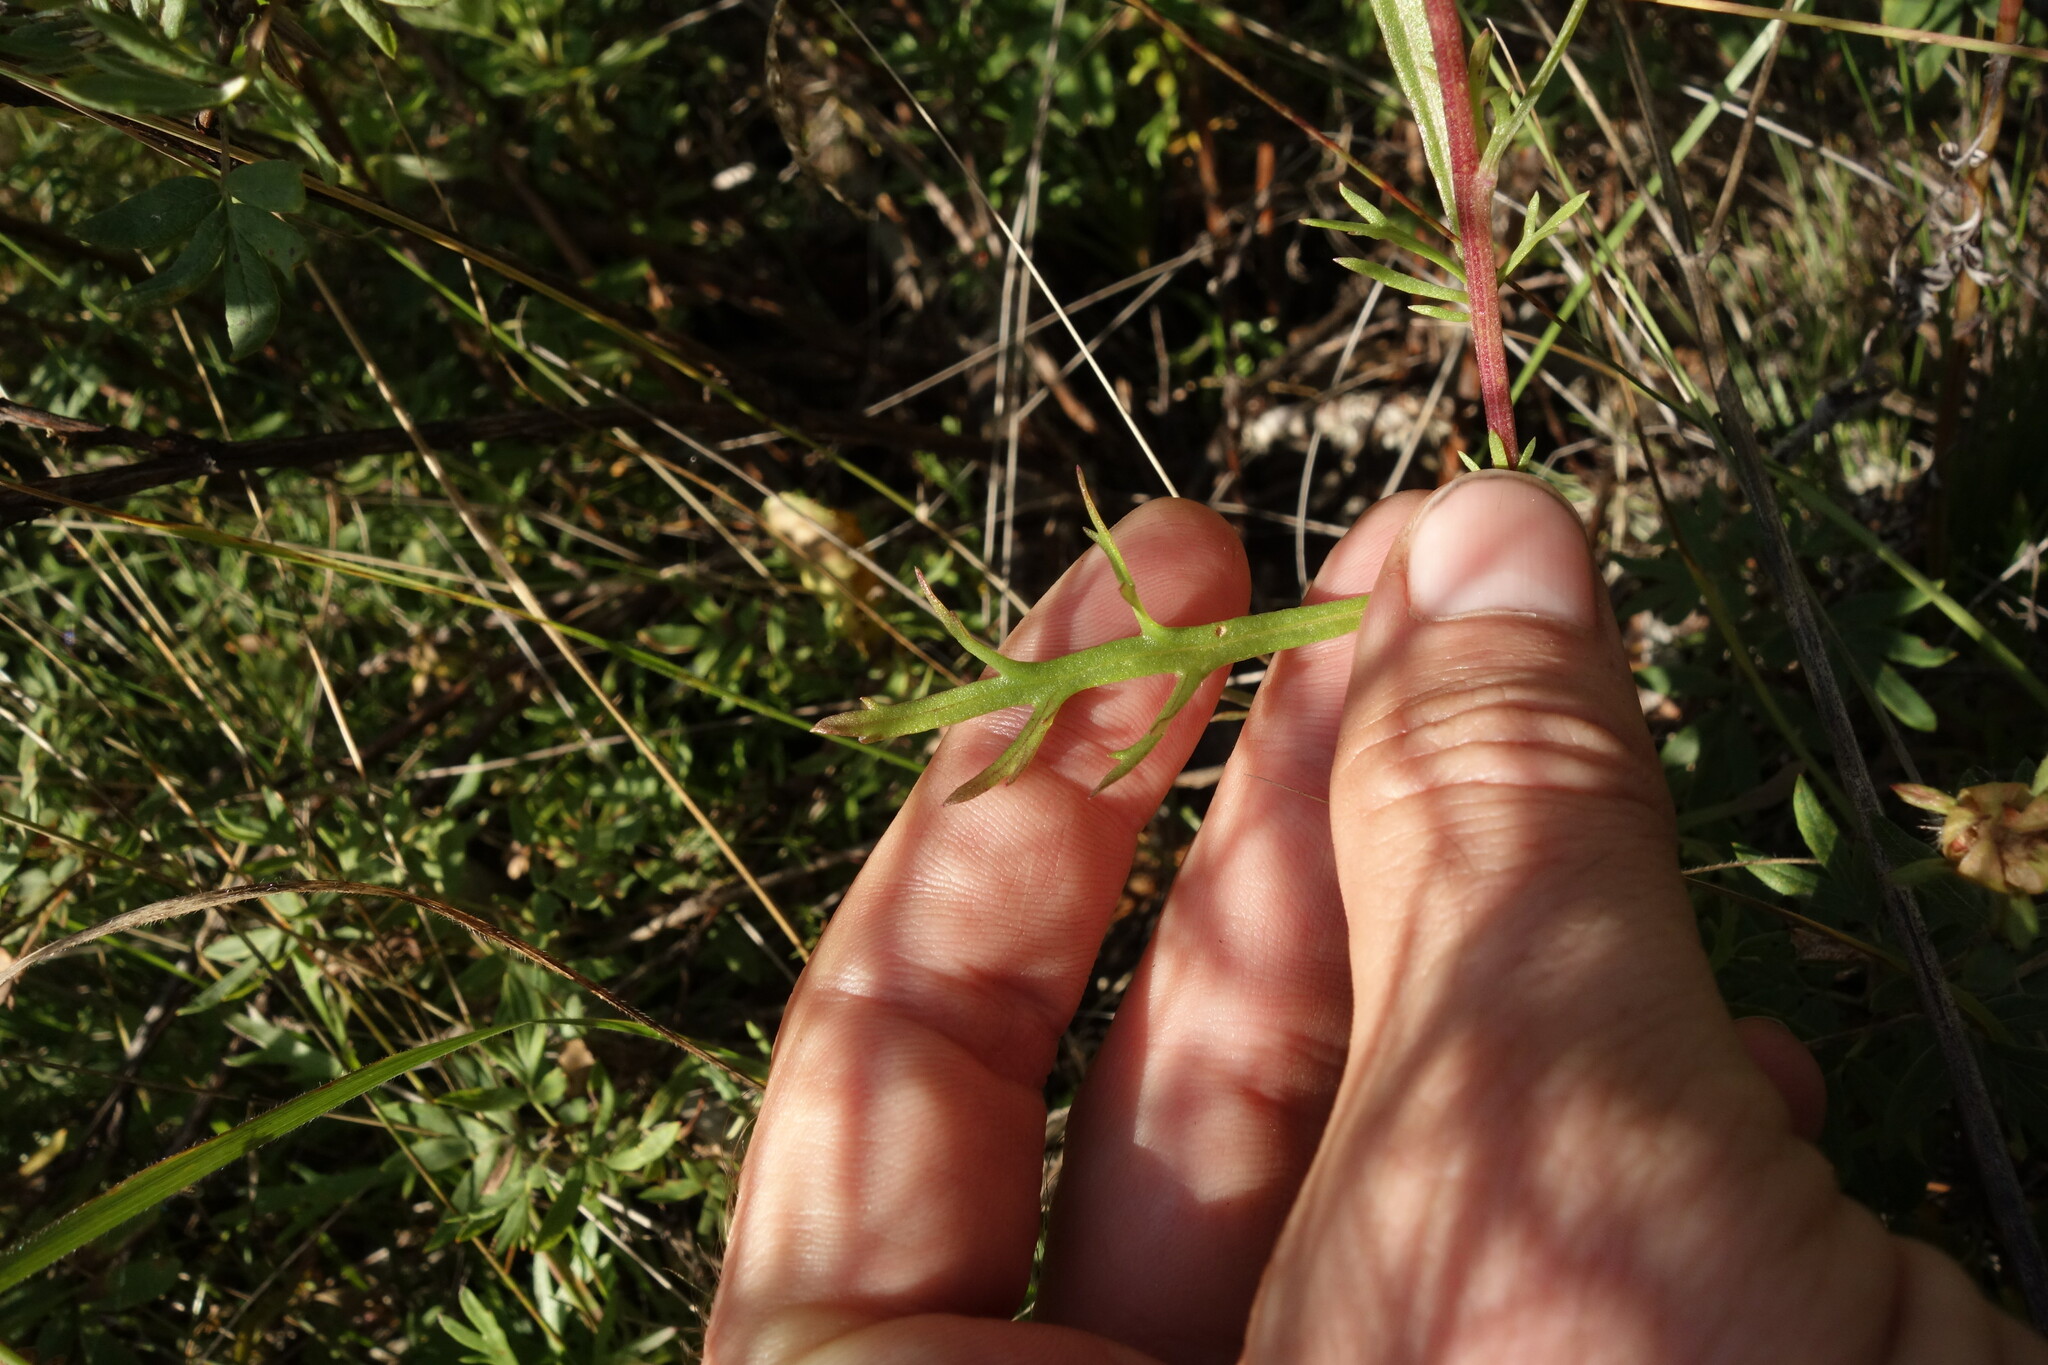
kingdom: Plantae
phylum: Tracheophyta
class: Magnoliopsida
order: Asterales
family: Asteraceae
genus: Chrysanthemum
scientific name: Chrysanthemum zawadzkii
